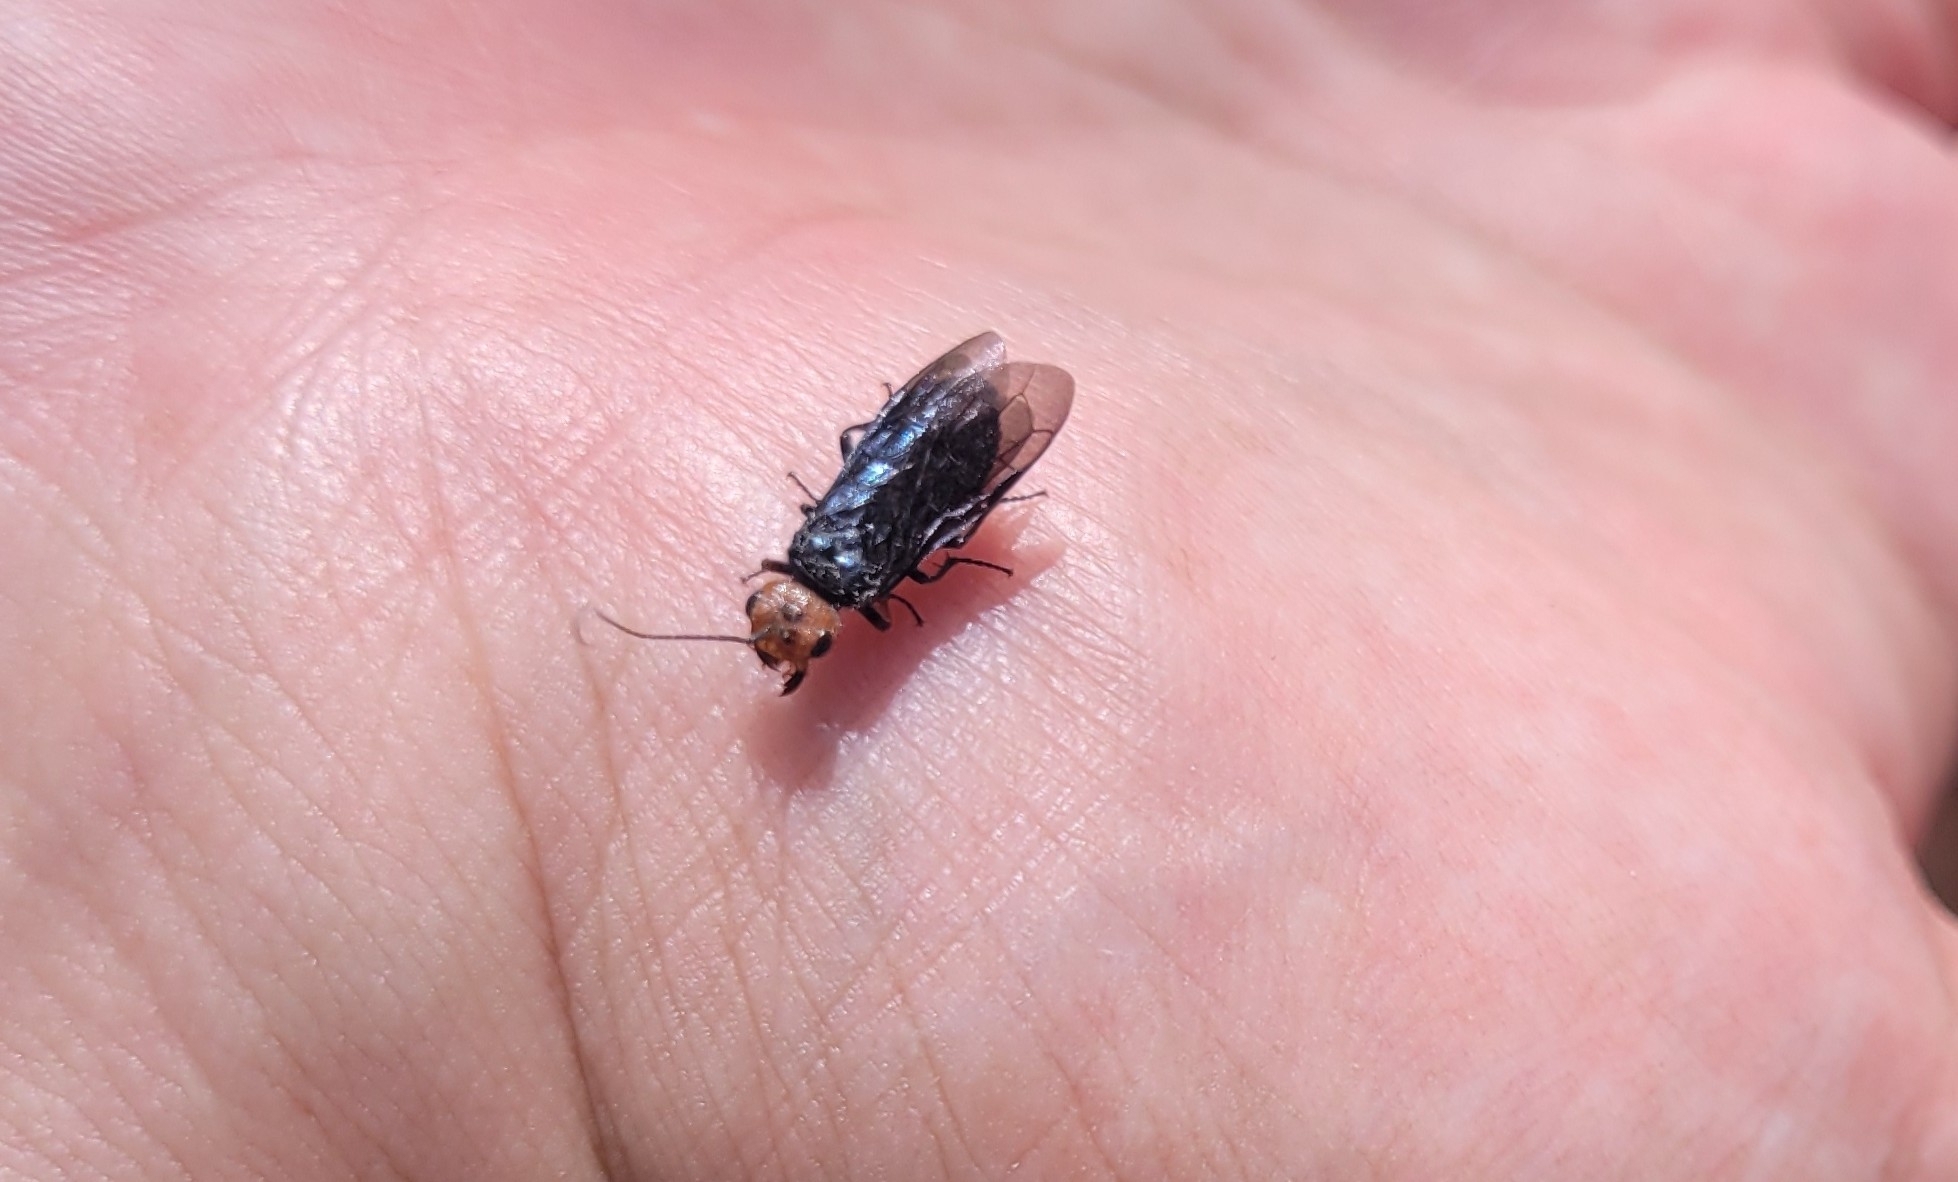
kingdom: Animalia
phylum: Arthropoda
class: Insecta
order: Hymenoptera
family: Pamphiliidae
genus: Acantholyda
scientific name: Acantholyda erythrocephala
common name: Pine false webworm
